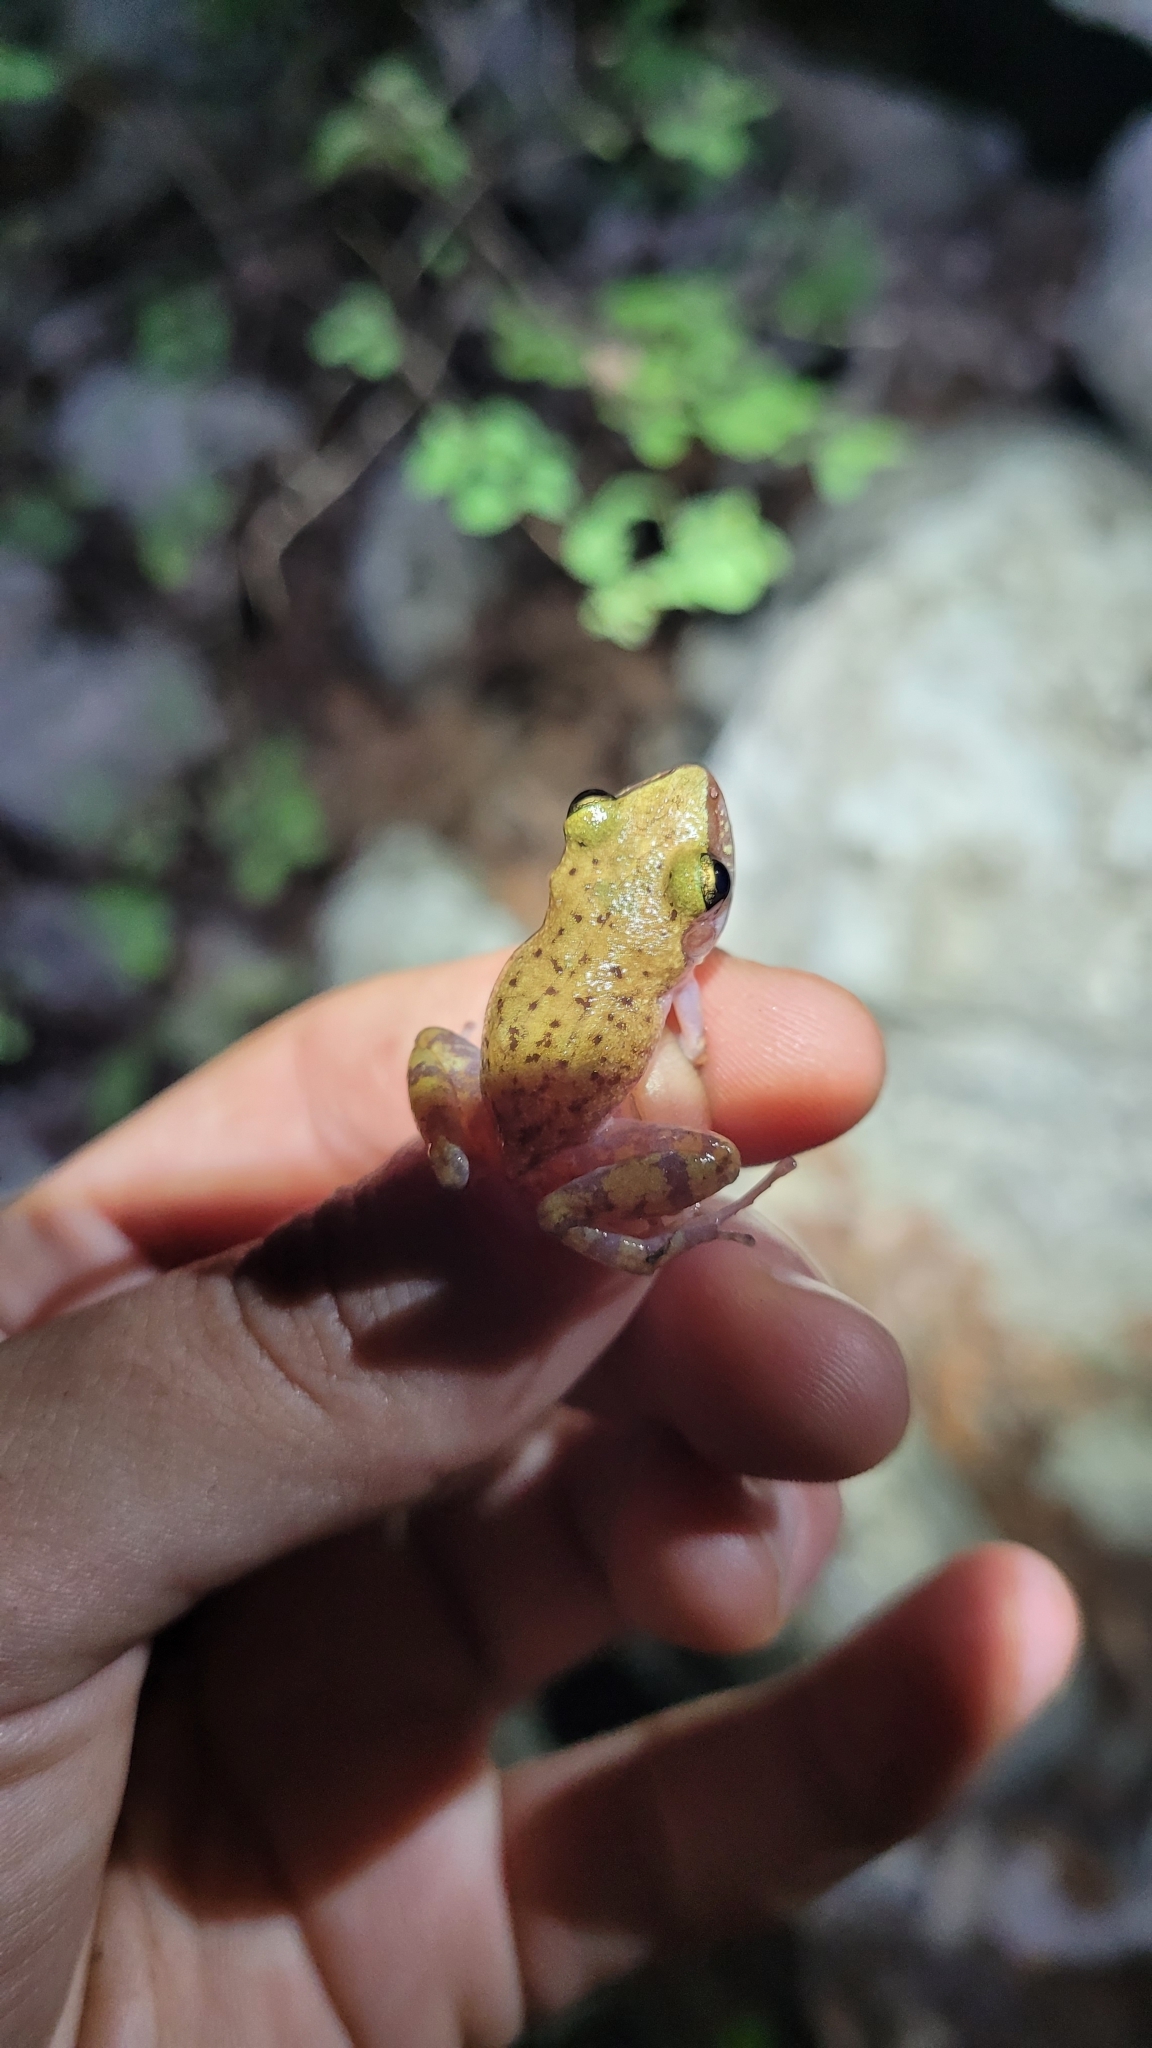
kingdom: Animalia
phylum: Chordata
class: Amphibia
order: Anura
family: Eleutherodactylidae
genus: Eleutherodactylus
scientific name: Eleutherodactylus marnockii
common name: Cliff chirping frog
